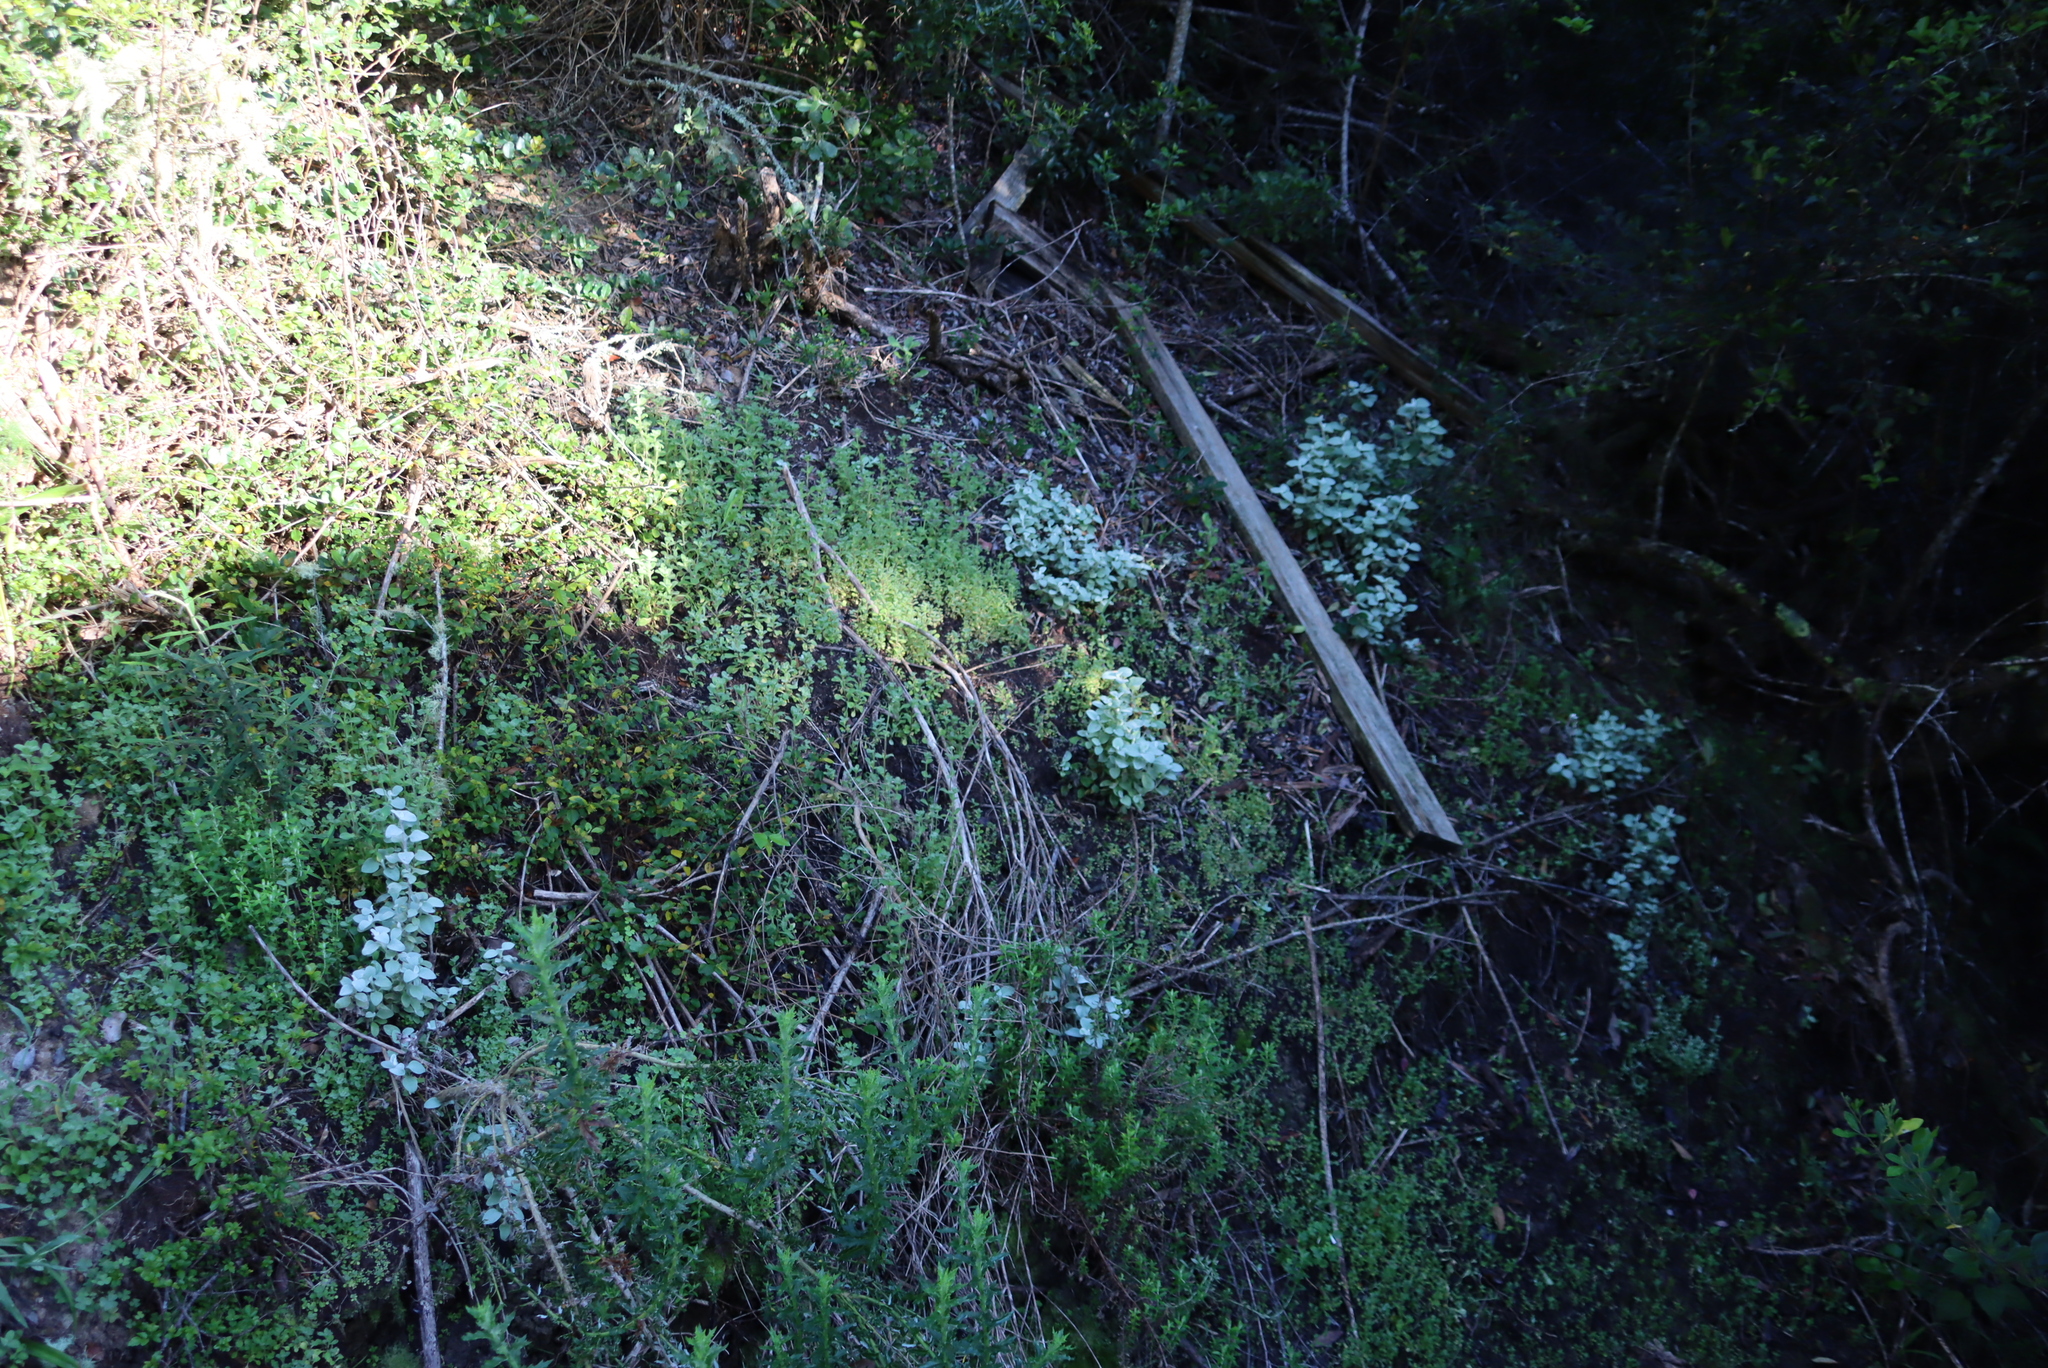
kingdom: Plantae
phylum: Tracheophyta
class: Magnoliopsida
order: Asterales
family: Asteraceae
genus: Helichrysum
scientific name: Helichrysum petiolare
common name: Licorice-plant
